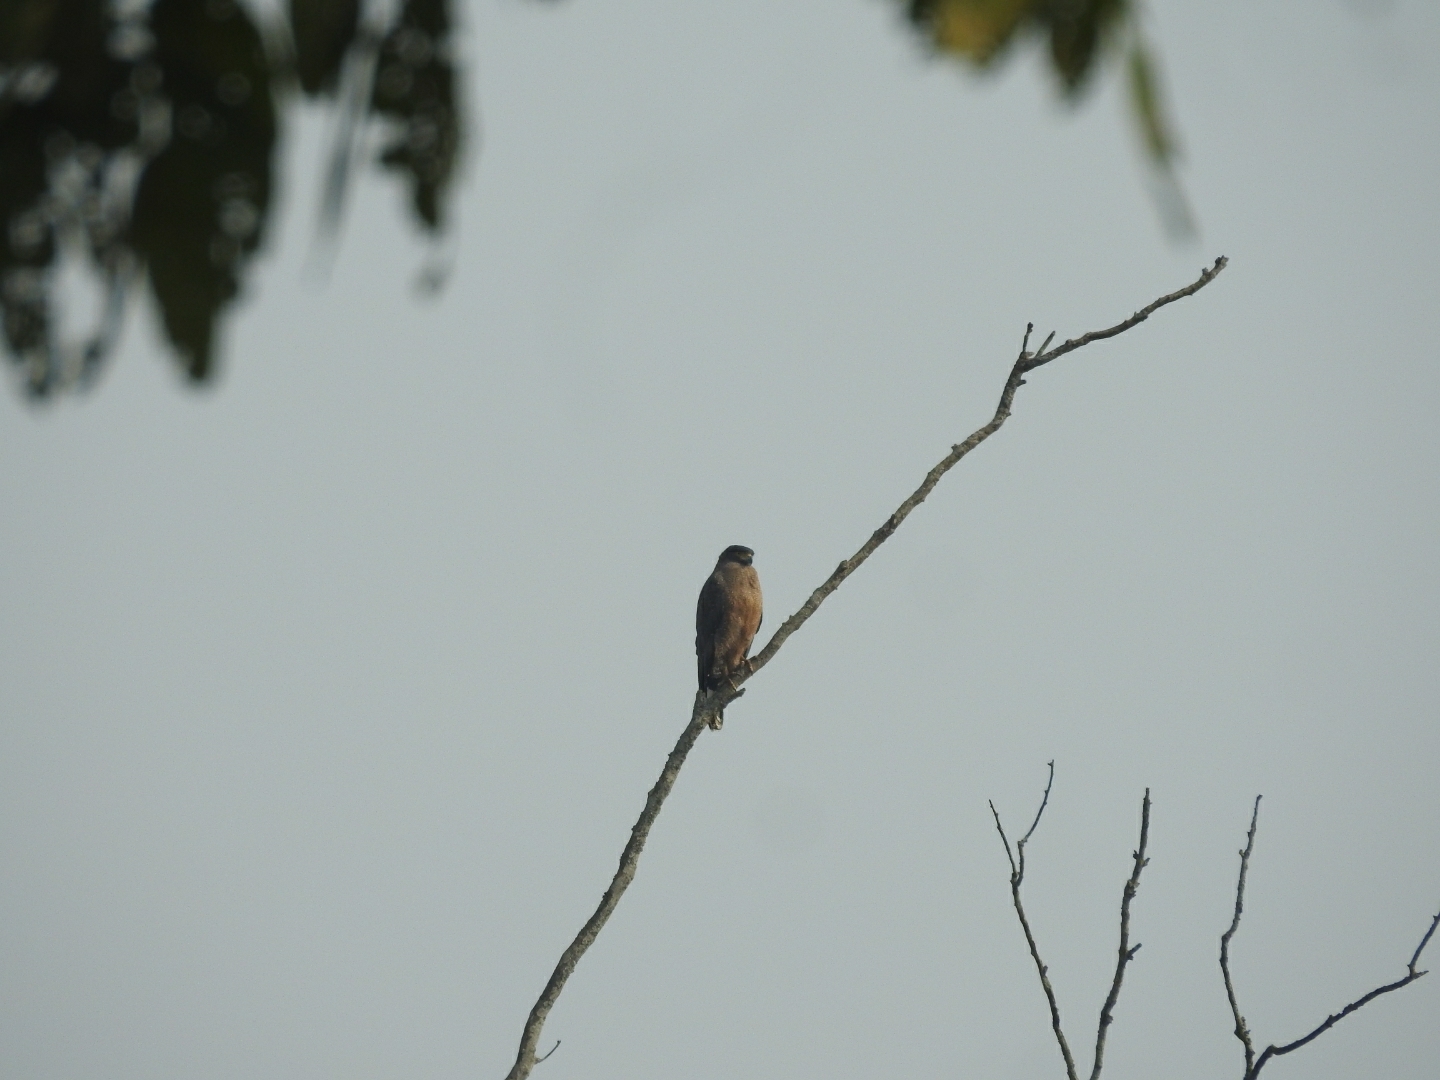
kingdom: Animalia
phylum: Chordata
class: Aves
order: Accipitriformes
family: Accipitridae
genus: Spilornis
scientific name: Spilornis cheela
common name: Crested serpent eagle
